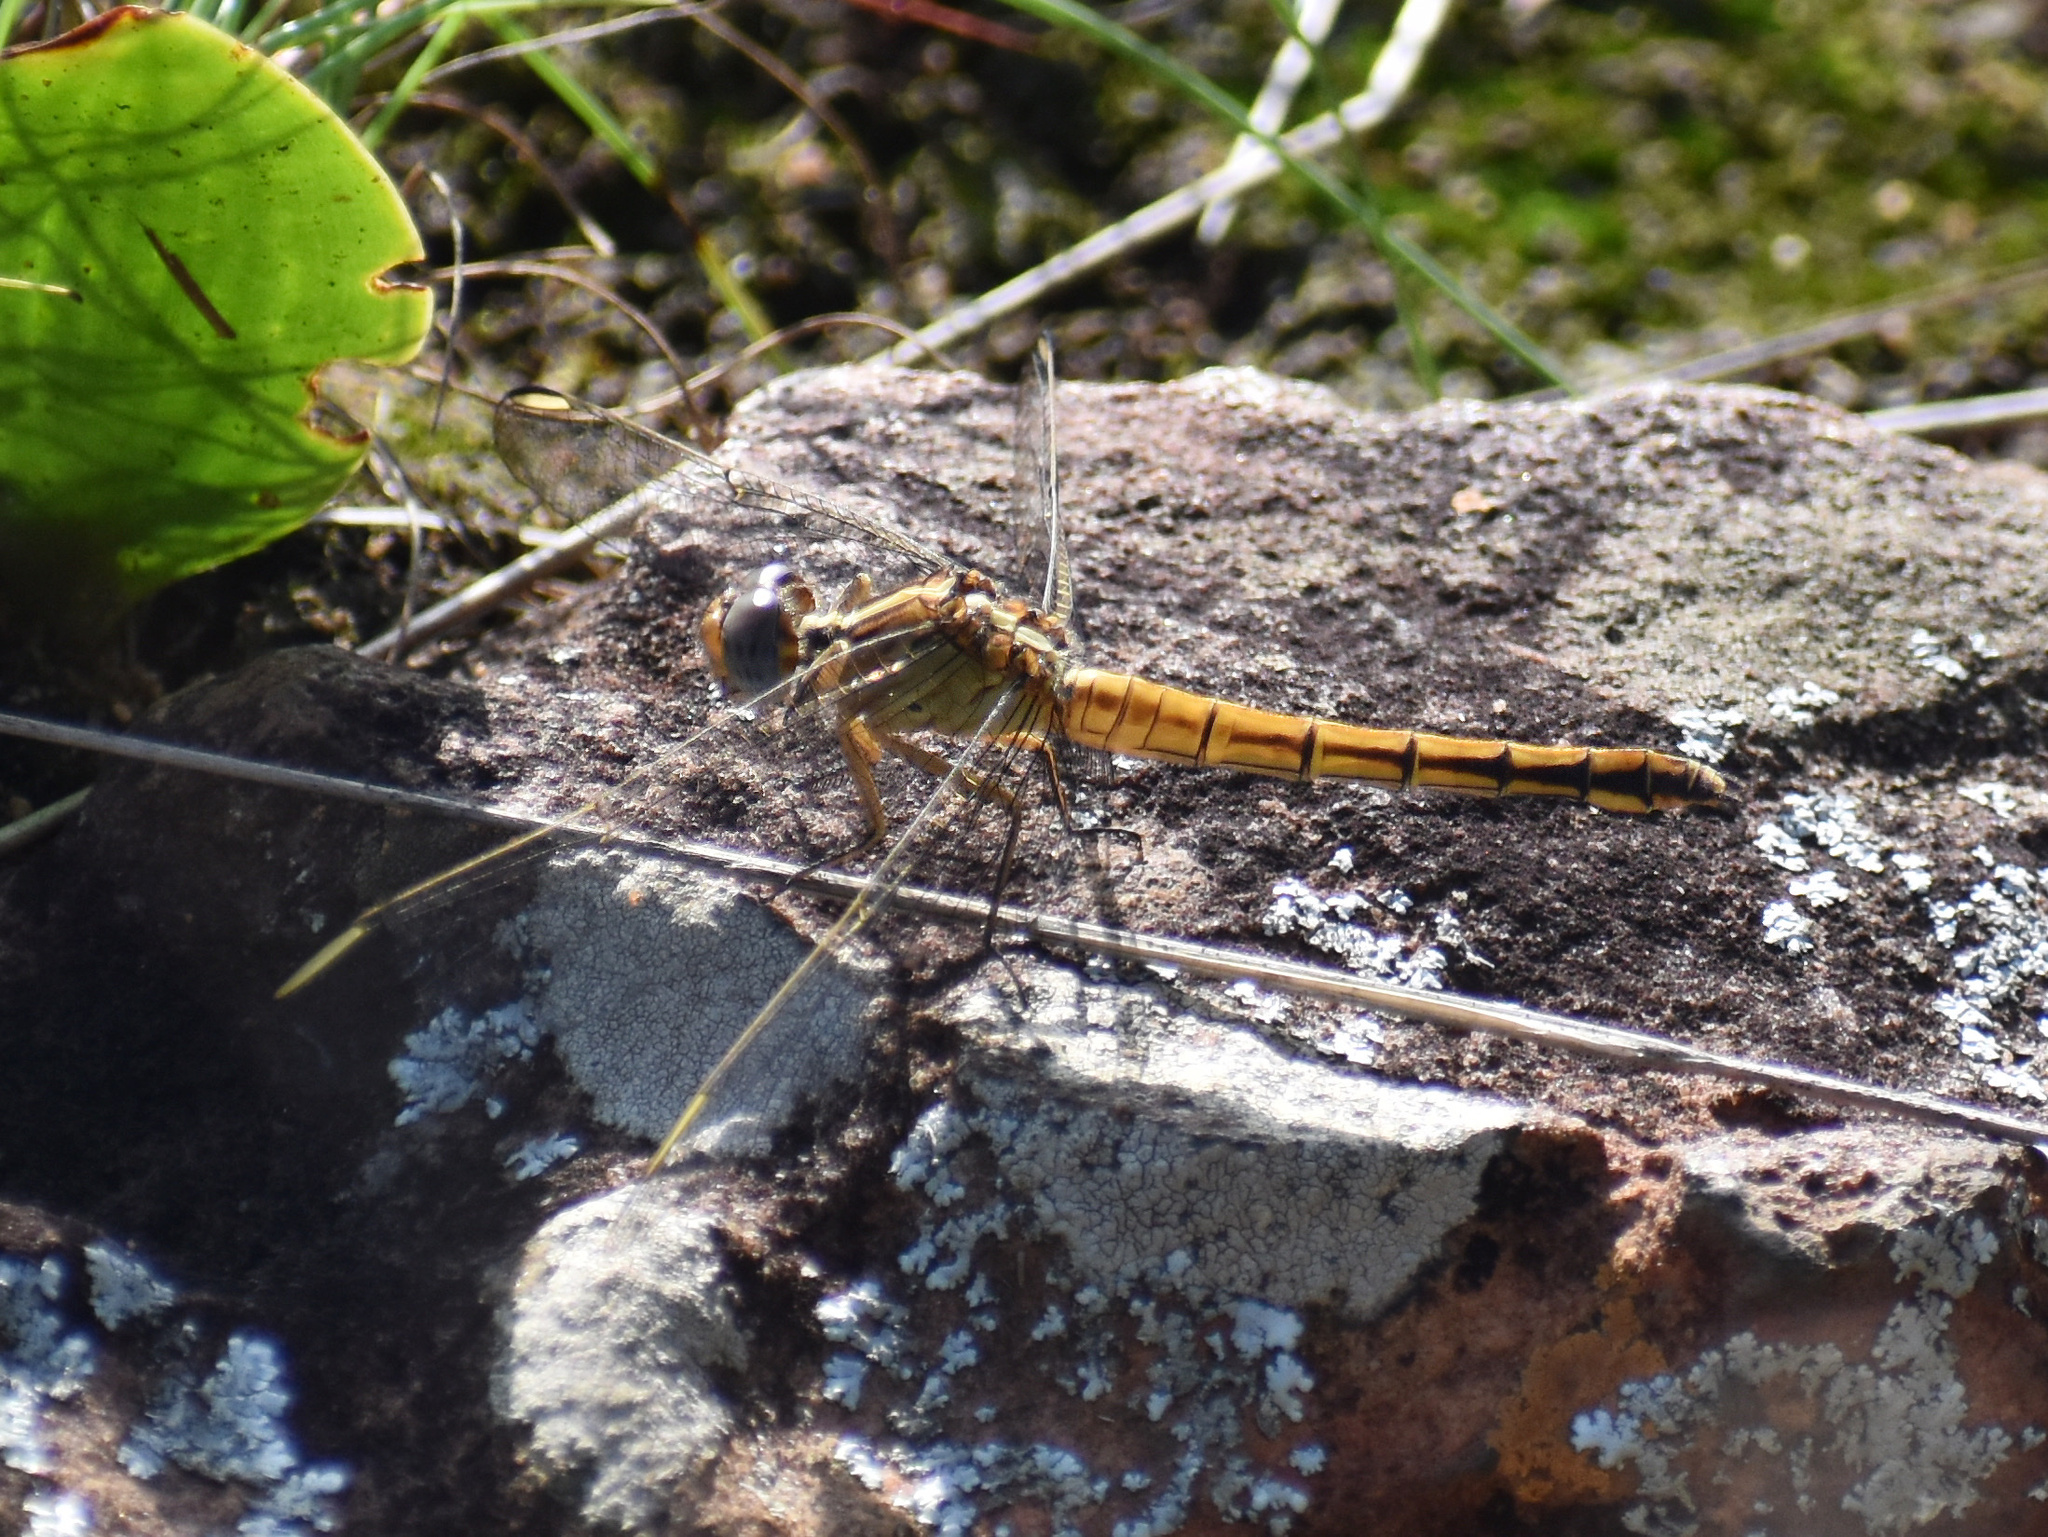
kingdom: Animalia
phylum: Arthropoda
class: Insecta
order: Odonata
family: Libellulidae
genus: Nesciothemis
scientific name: Nesciothemis farinosa
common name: Eastern blacktail
